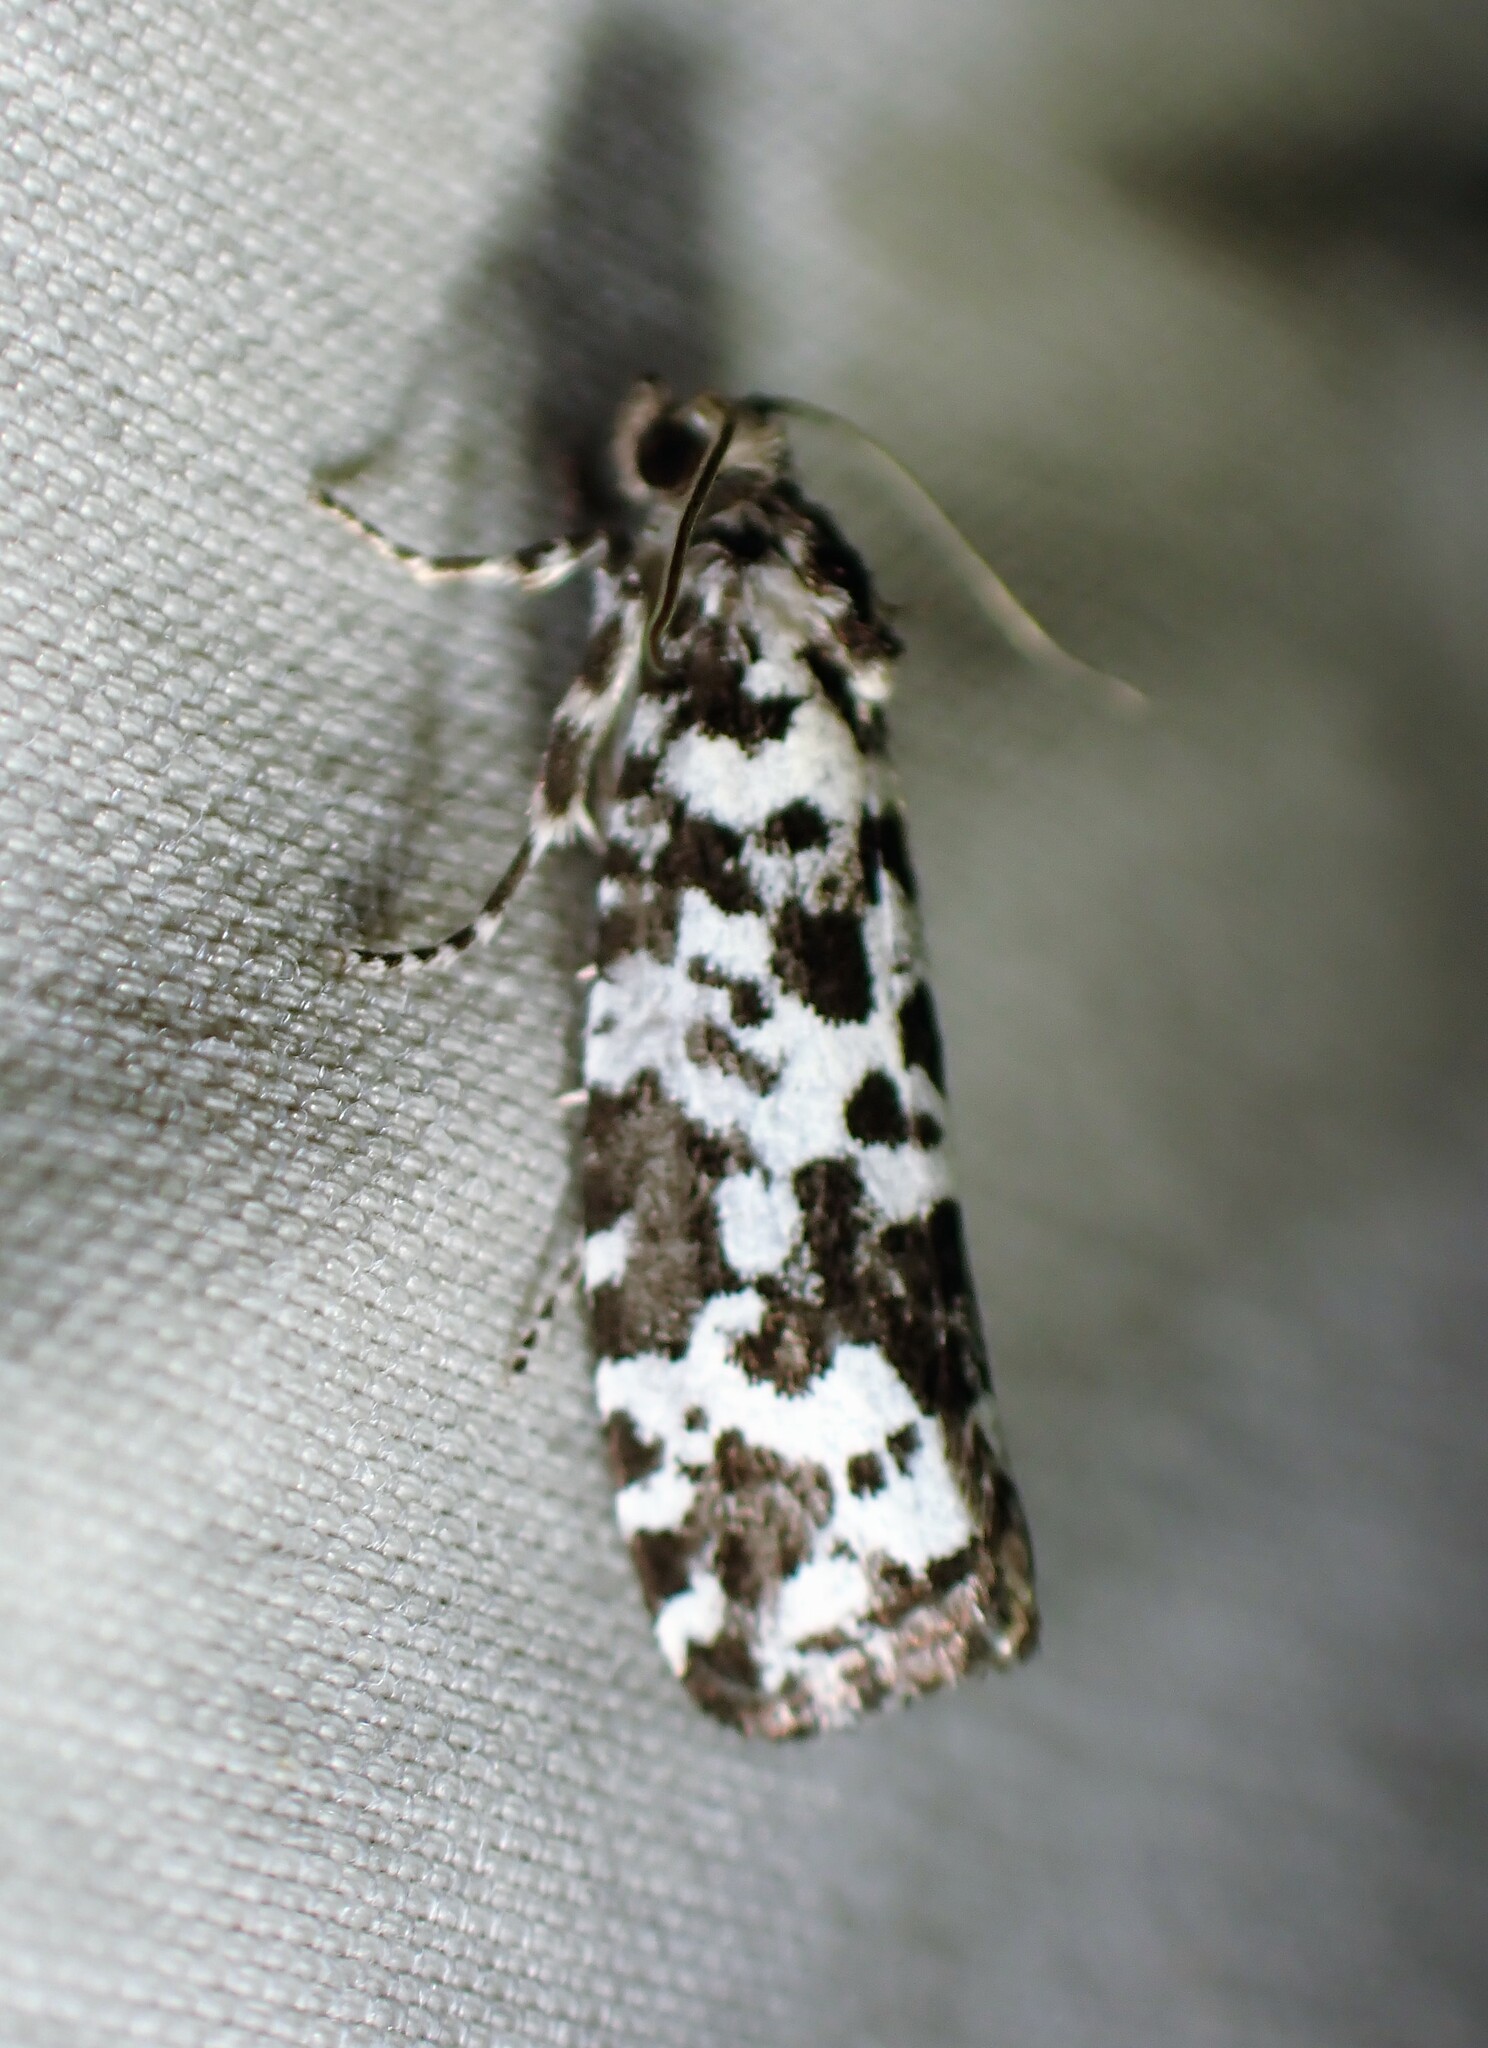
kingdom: Animalia
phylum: Arthropoda
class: Insecta
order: Lepidoptera
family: Tortricidae
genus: Retinia
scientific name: Retinia burkeana
